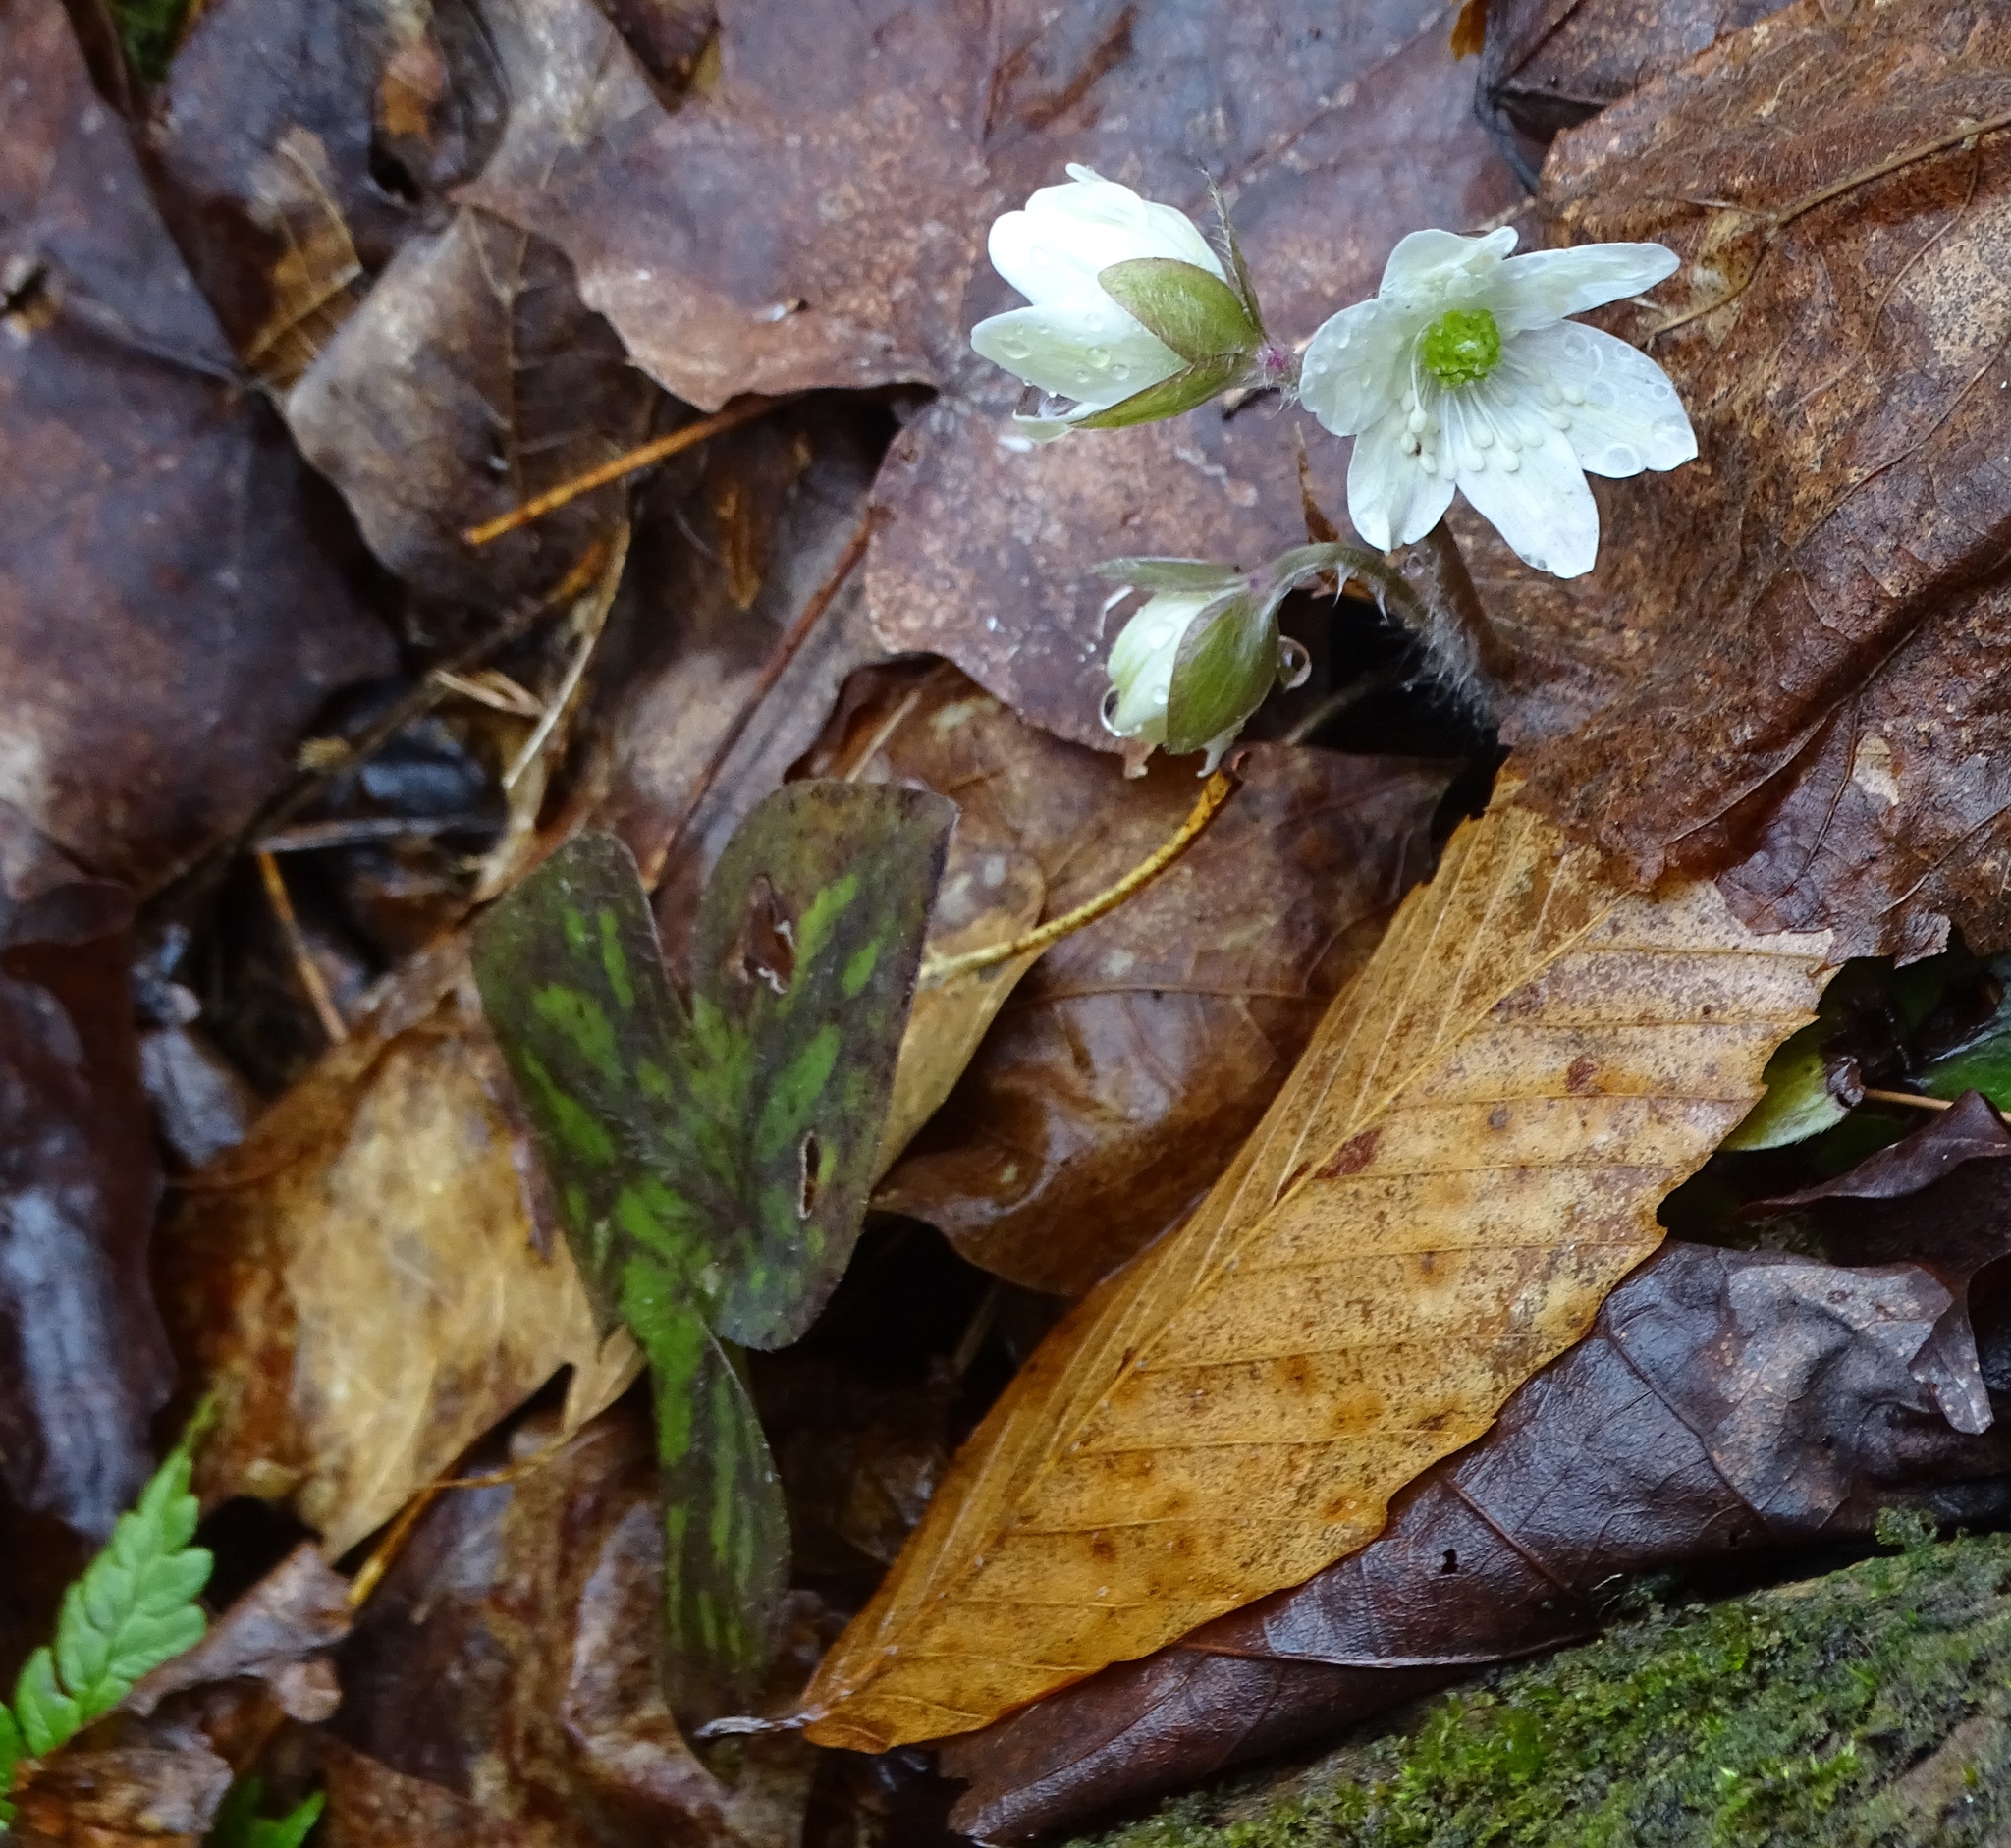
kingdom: Plantae
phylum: Tracheophyta
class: Magnoliopsida
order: Ranunculales
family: Ranunculaceae
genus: Hepatica
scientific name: Hepatica acutiloba
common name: Sharp-lobed hepatica
